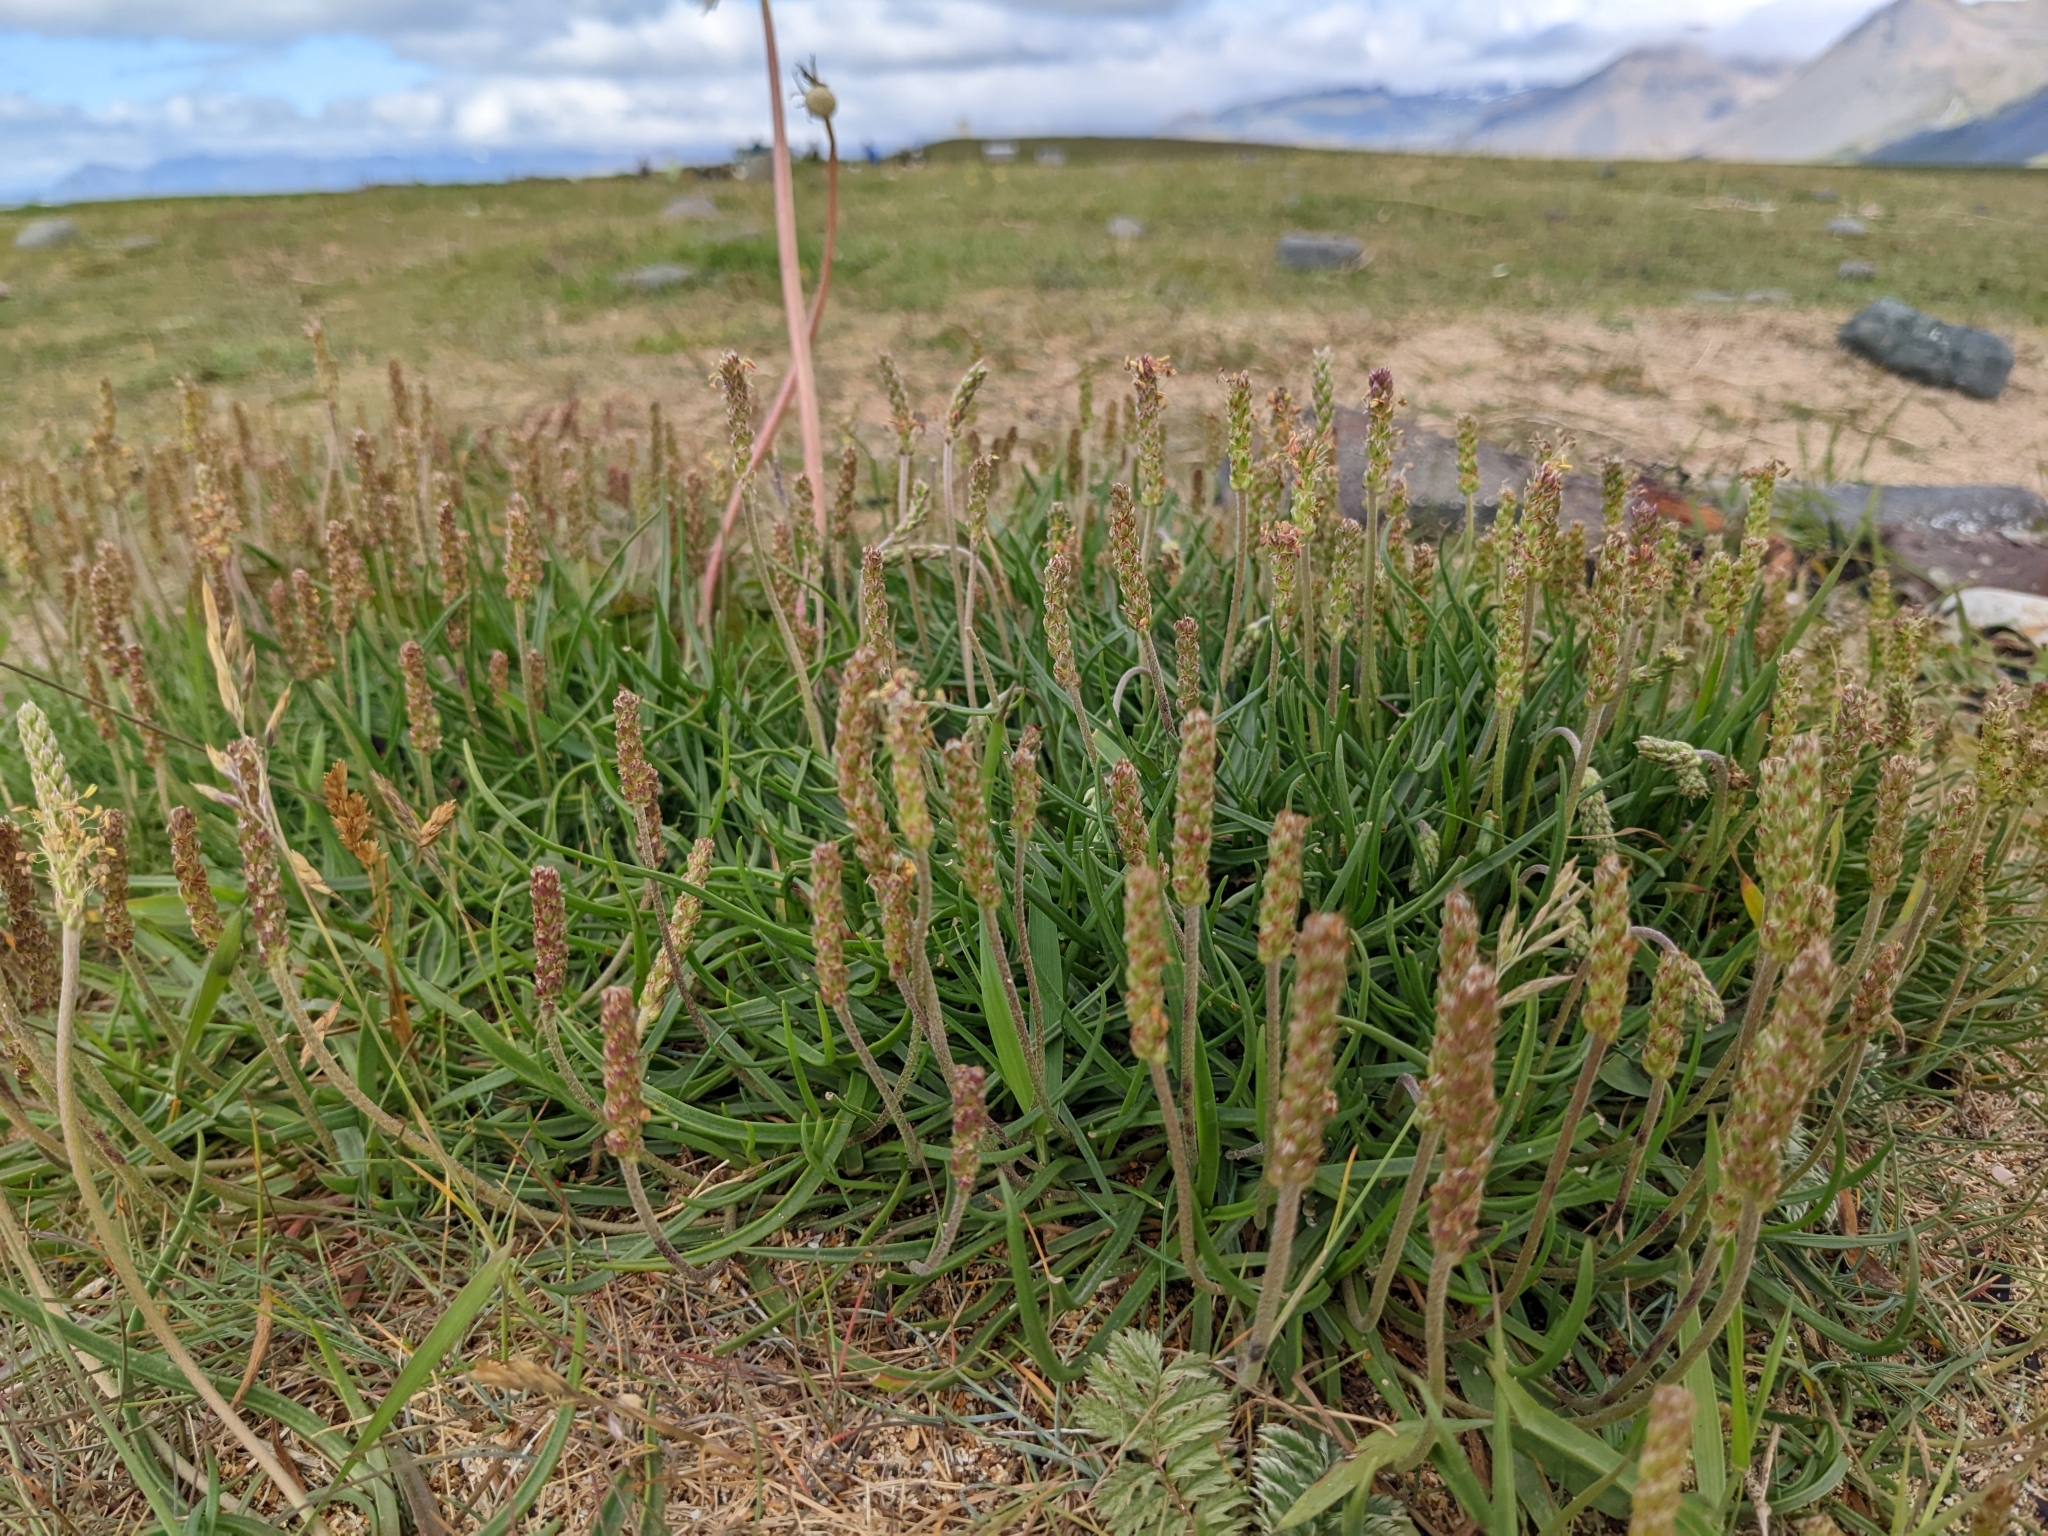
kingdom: Plantae
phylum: Tracheophyta
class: Magnoliopsida
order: Lamiales
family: Plantaginaceae
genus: Plantago
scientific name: Plantago maritima
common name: Sea plantain
